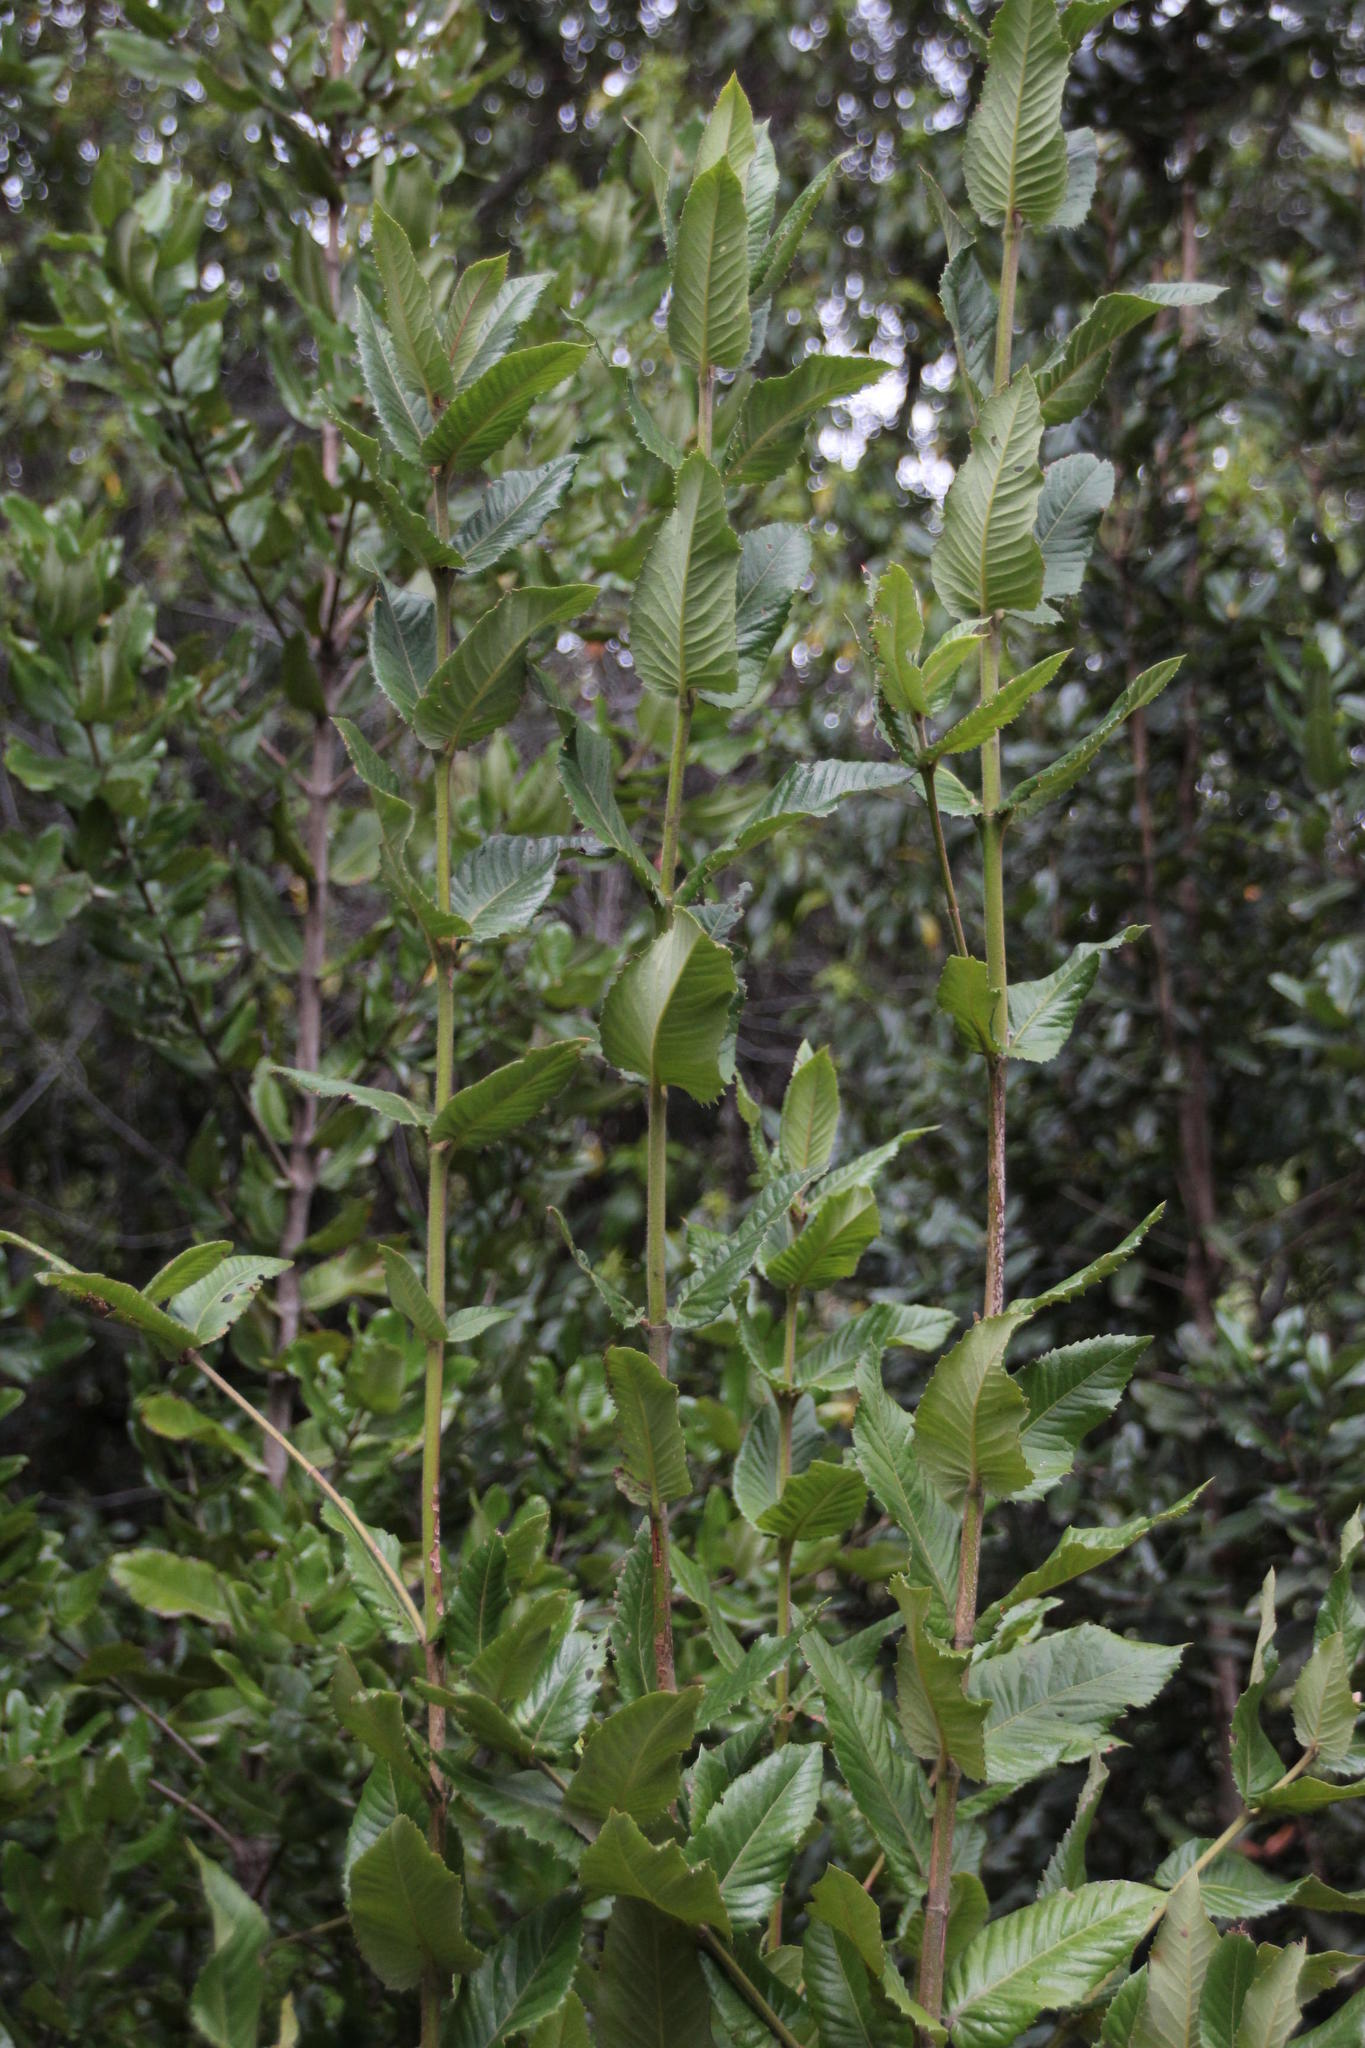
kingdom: Plantae
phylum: Tracheophyta
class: Magnoliopsida
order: Oxalidales
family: Cunoniaceae
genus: Eucryphia
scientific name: Eucryphia cordifolia
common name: Ulmo
